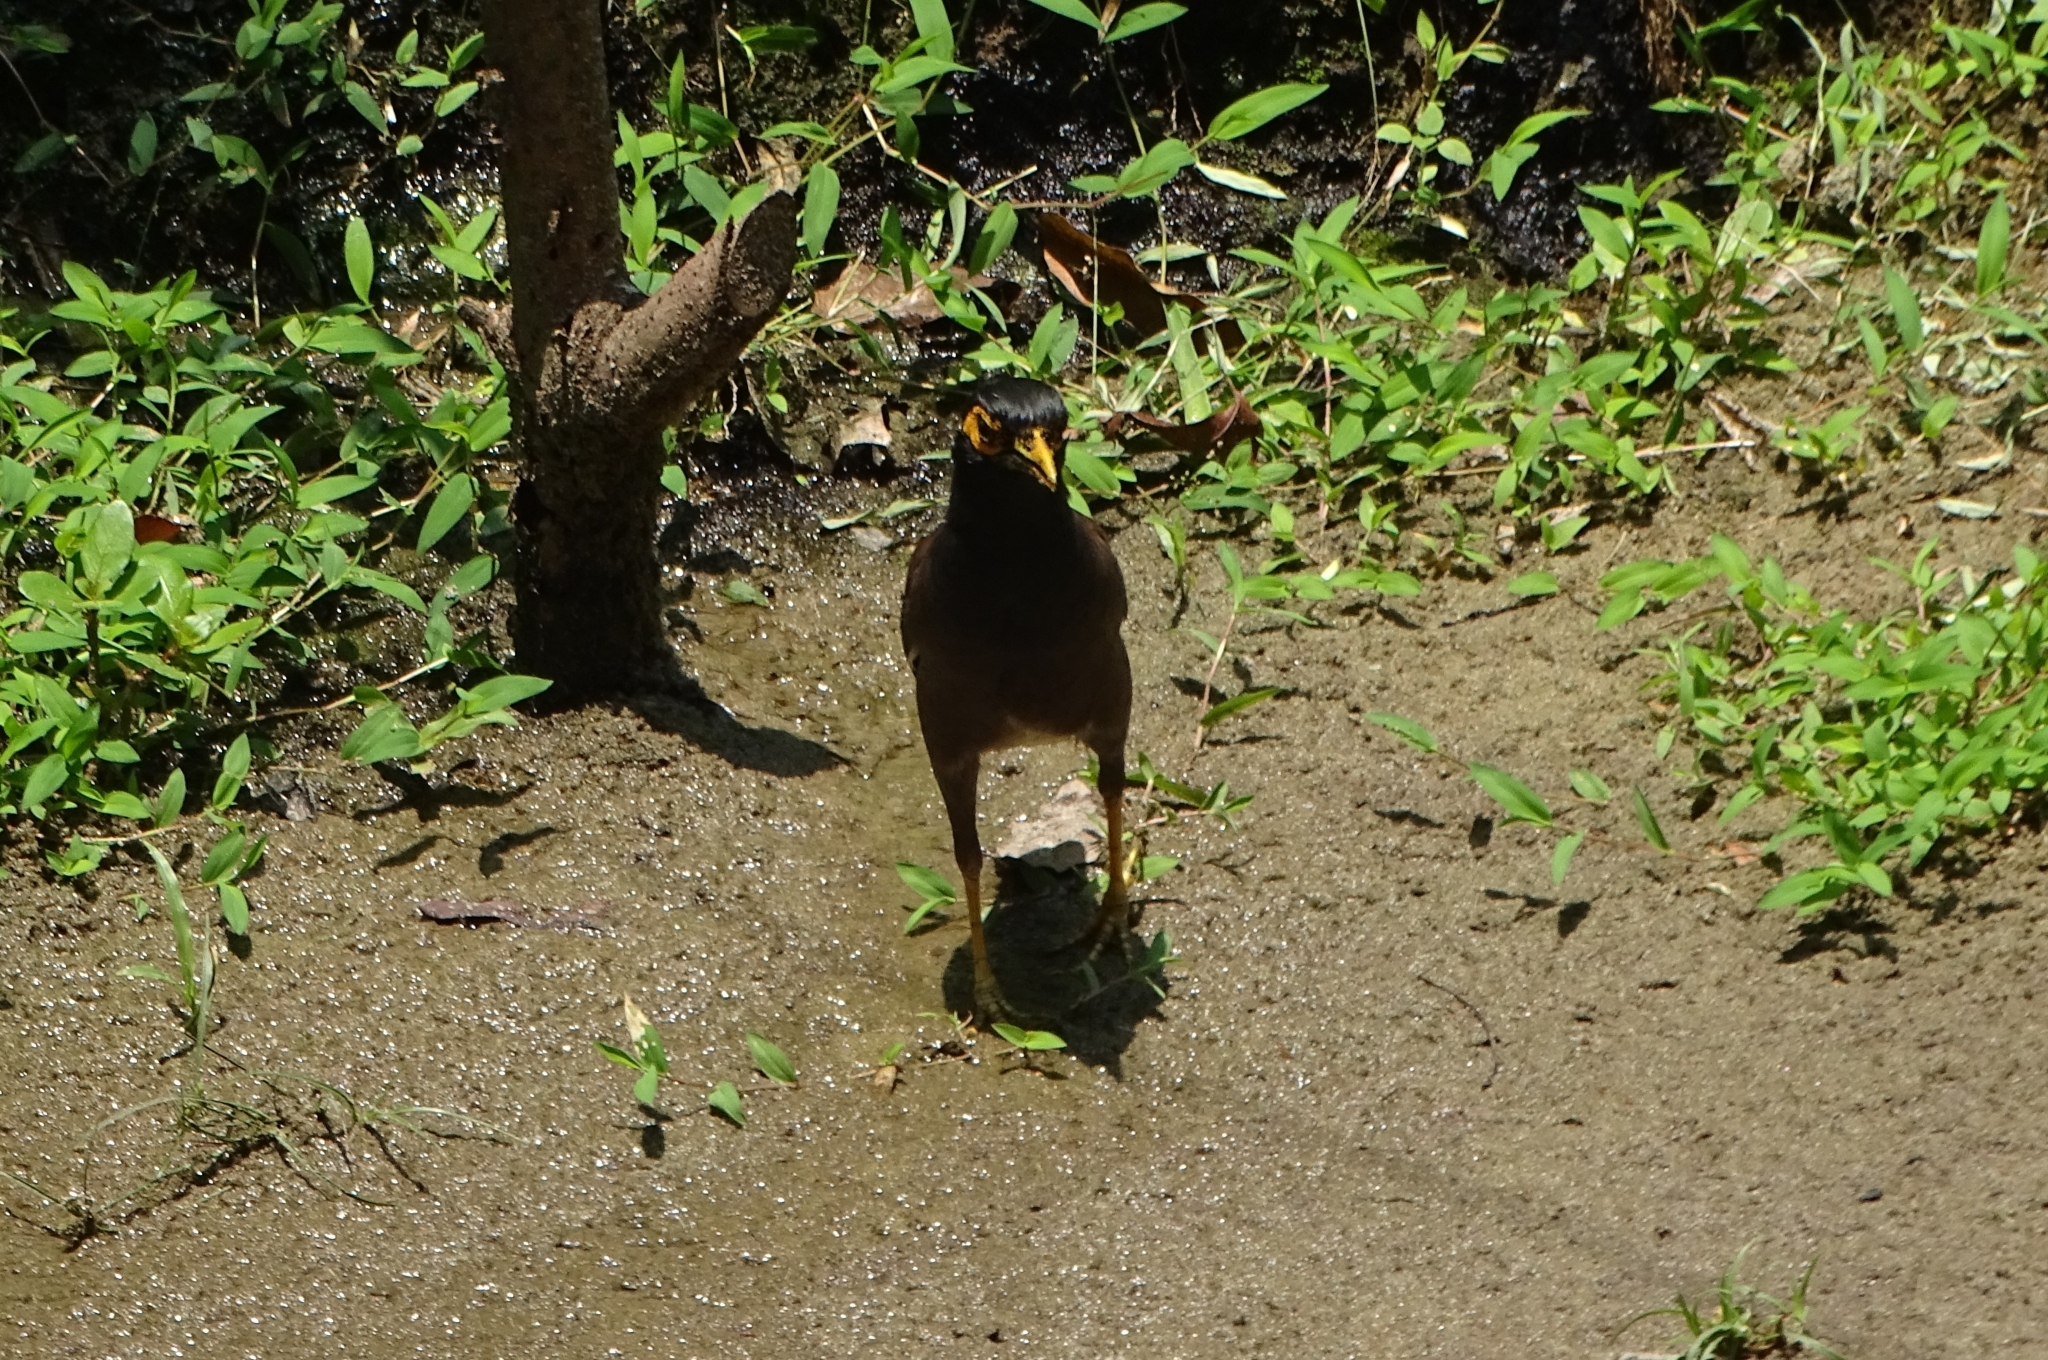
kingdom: Animalia
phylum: Chordata
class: Aves
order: Passeriformes
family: Sturnidae
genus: Acridotheres
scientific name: Acridotheres tristis
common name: Common myna
